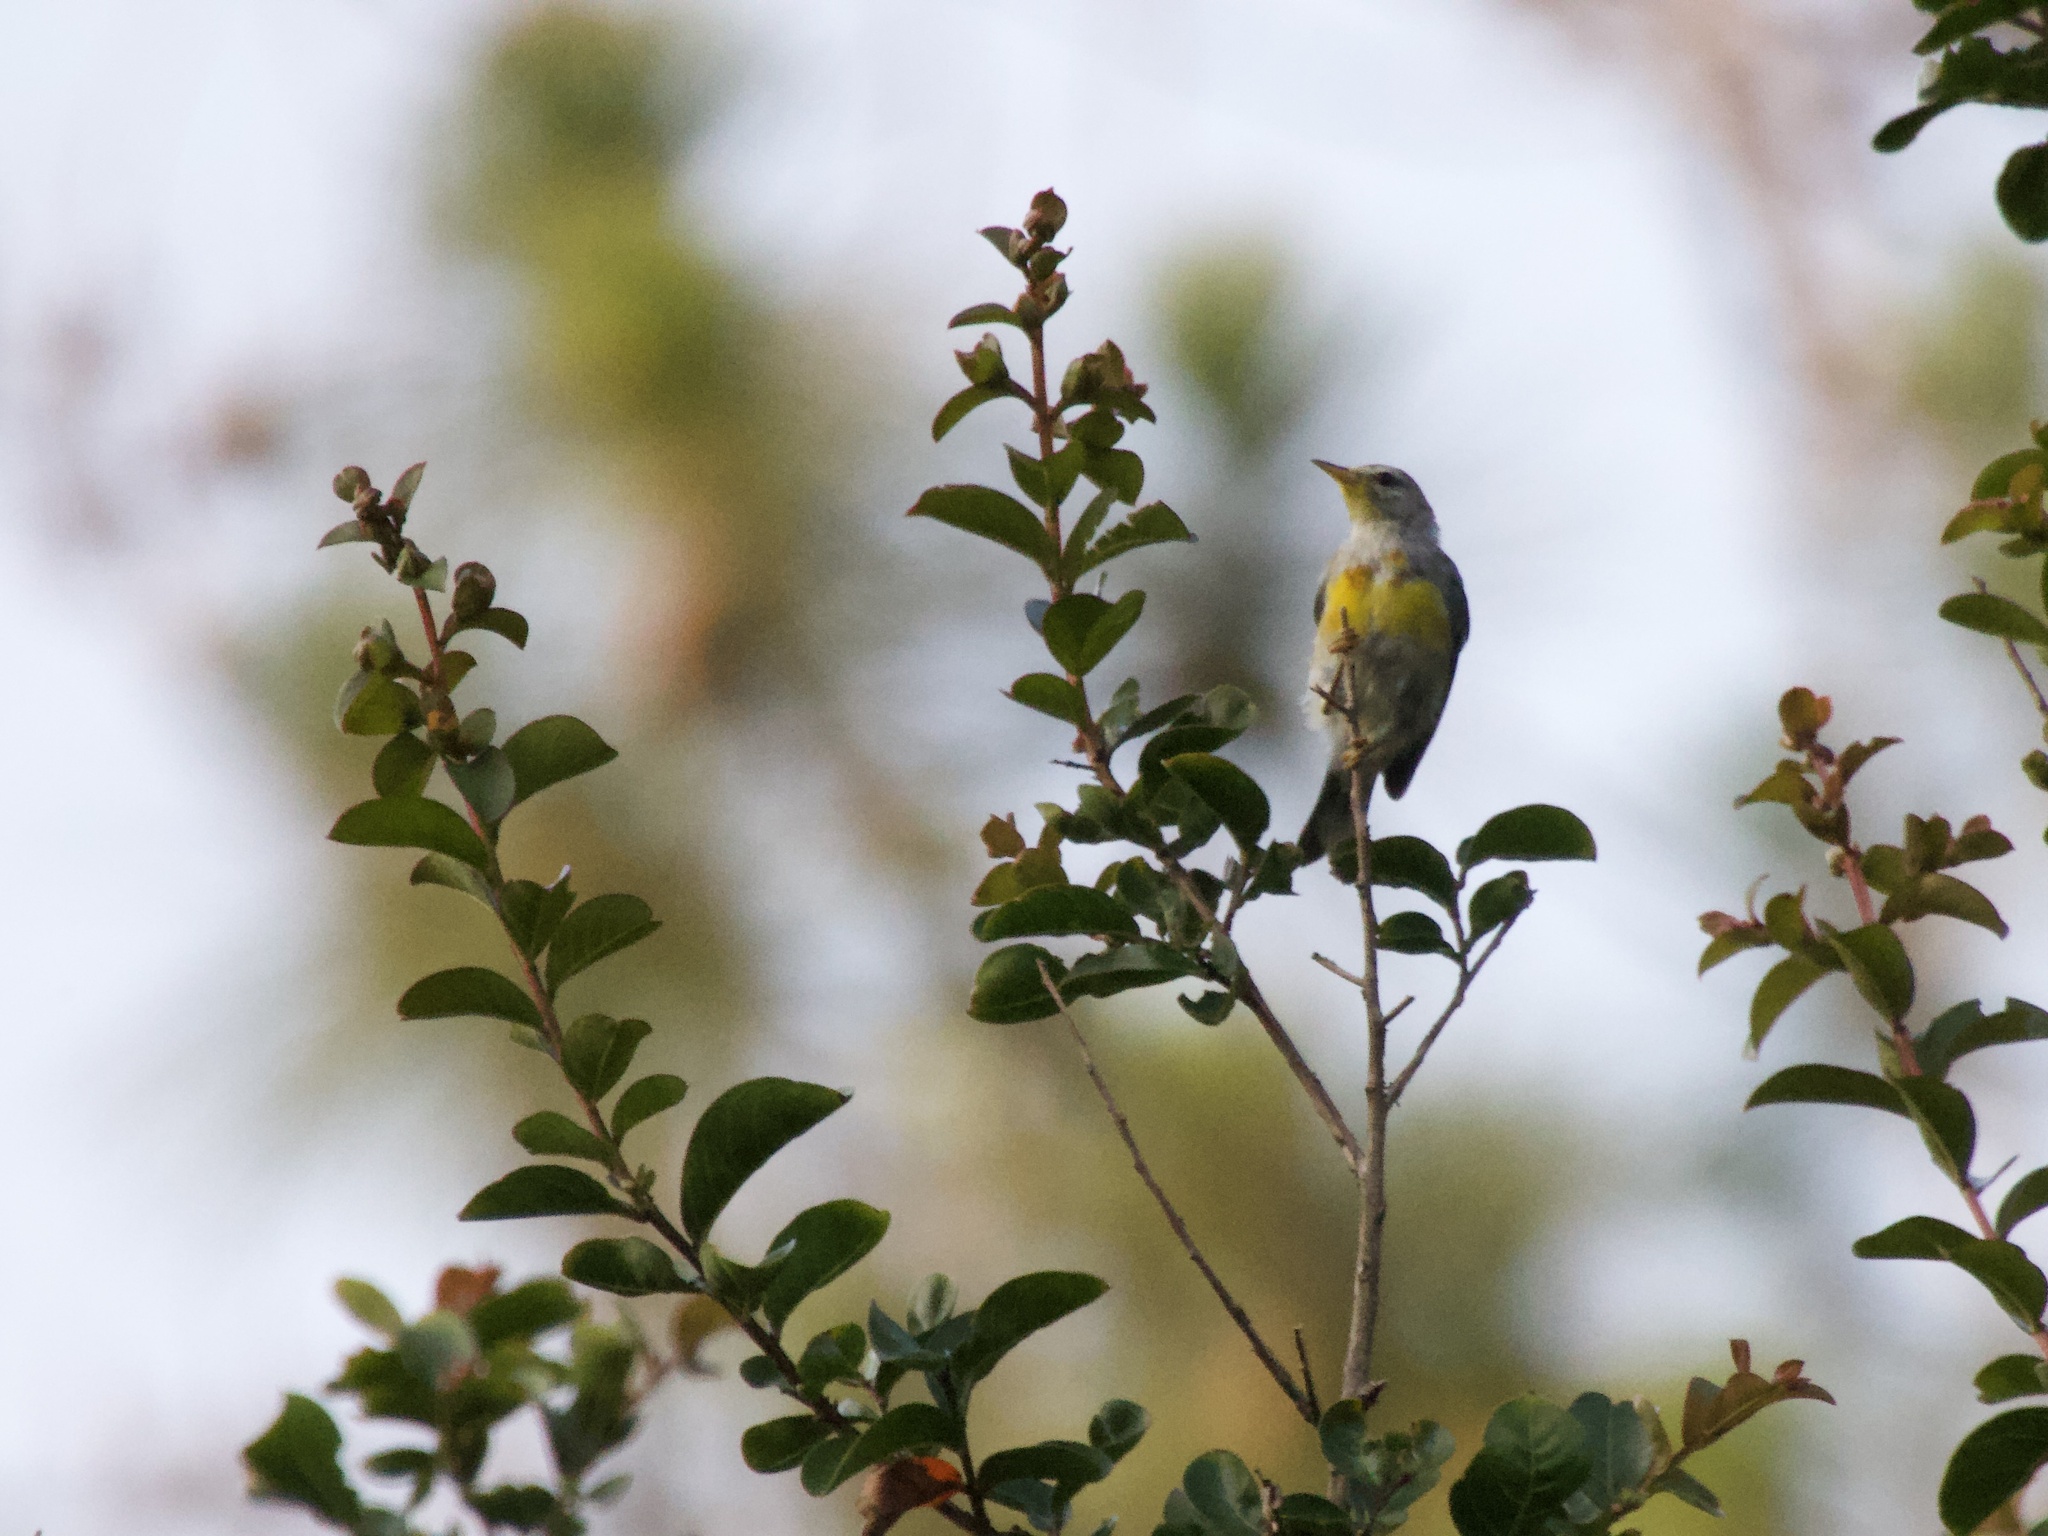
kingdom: Animalia
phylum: Chordata
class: Aves
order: Passeriformes
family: Parulidae
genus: Setophaga
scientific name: Setophaga americana
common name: Northern parula
